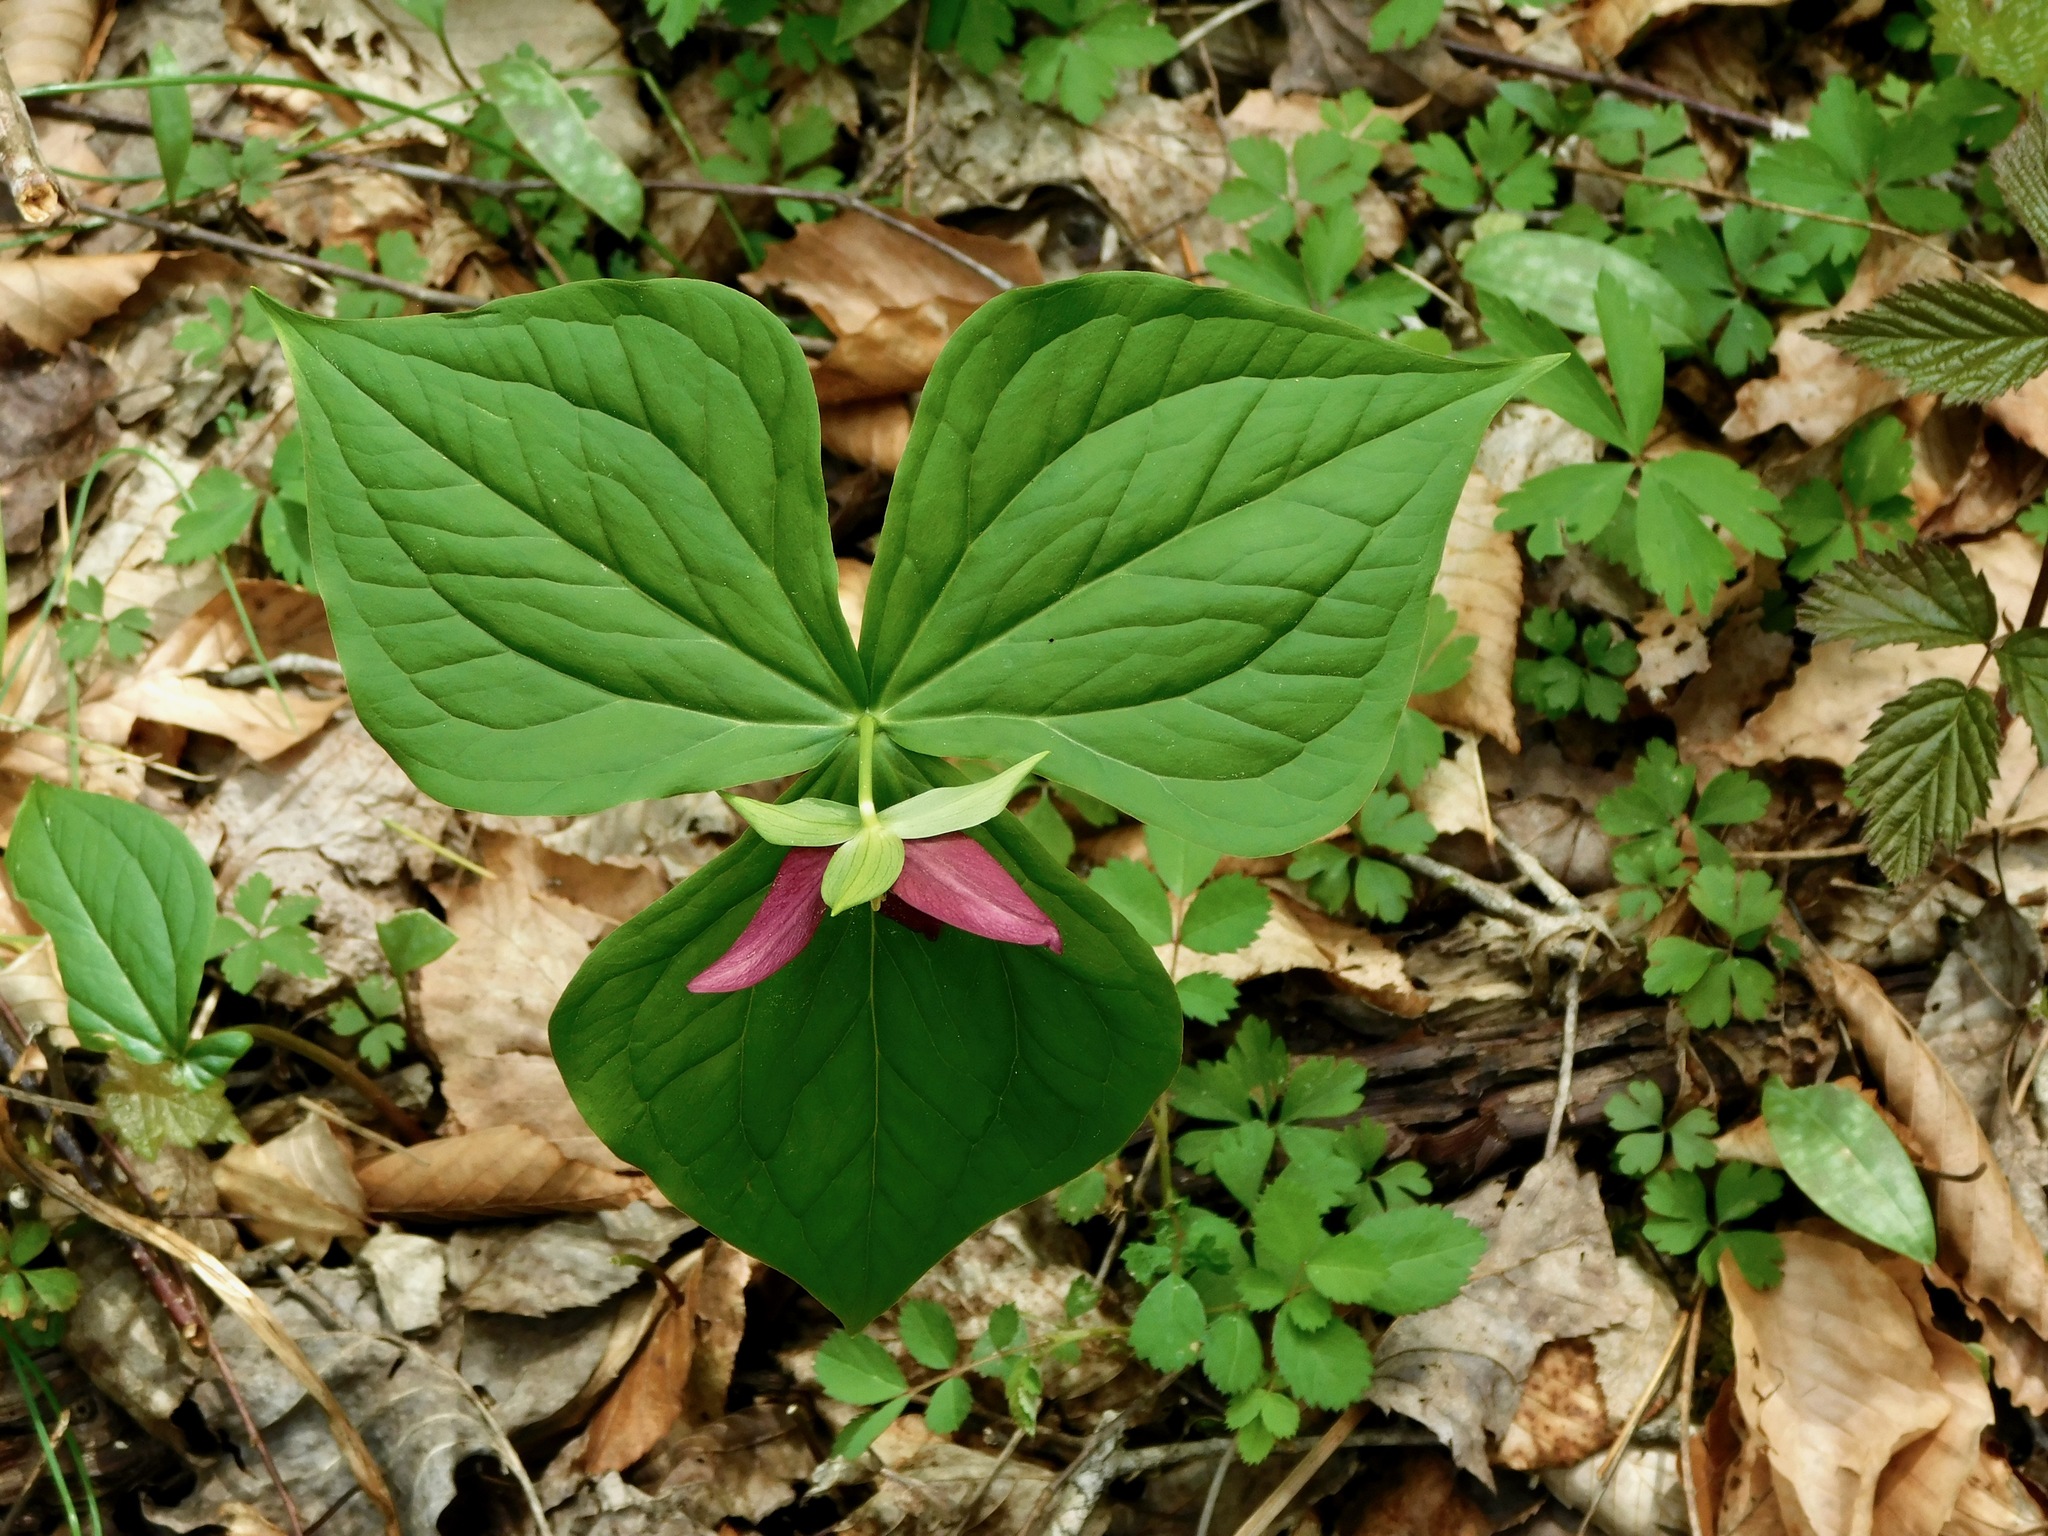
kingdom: Plantae
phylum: Tracheophyta
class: Liliopsida
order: Liliales
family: Melanthiaceae
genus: Trillium
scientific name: Trillium erectum
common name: Purple trillium
